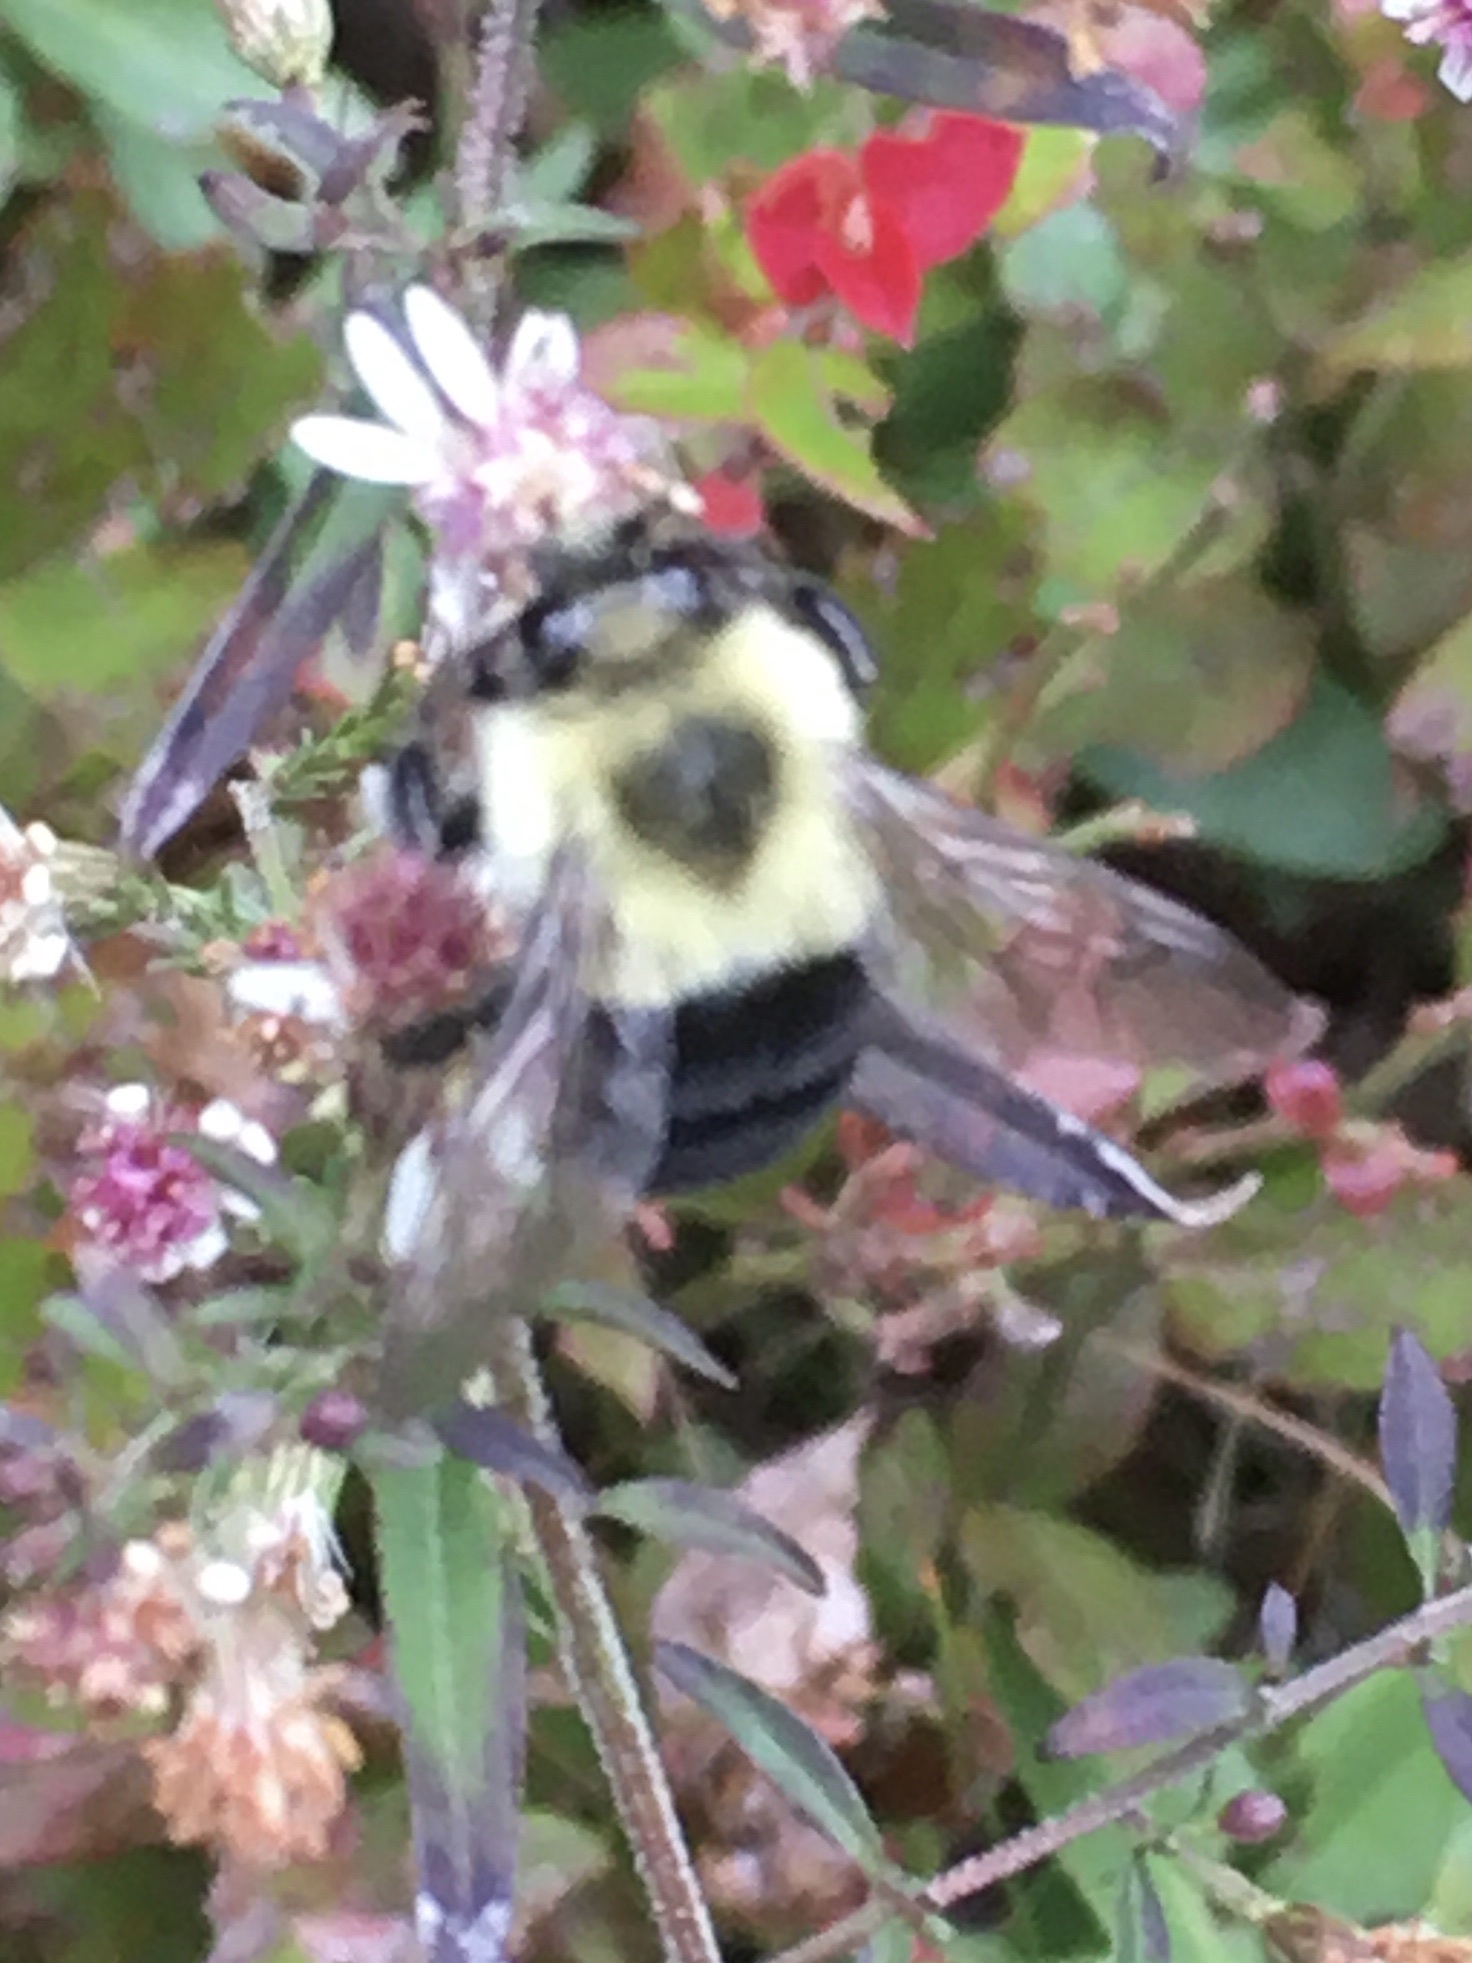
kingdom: Animalia
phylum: Arthropoda
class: Insecta
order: Hymenoptera
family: Apidae
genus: Bombus
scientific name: Bombus impatiens
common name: Common eastern bumble bee
